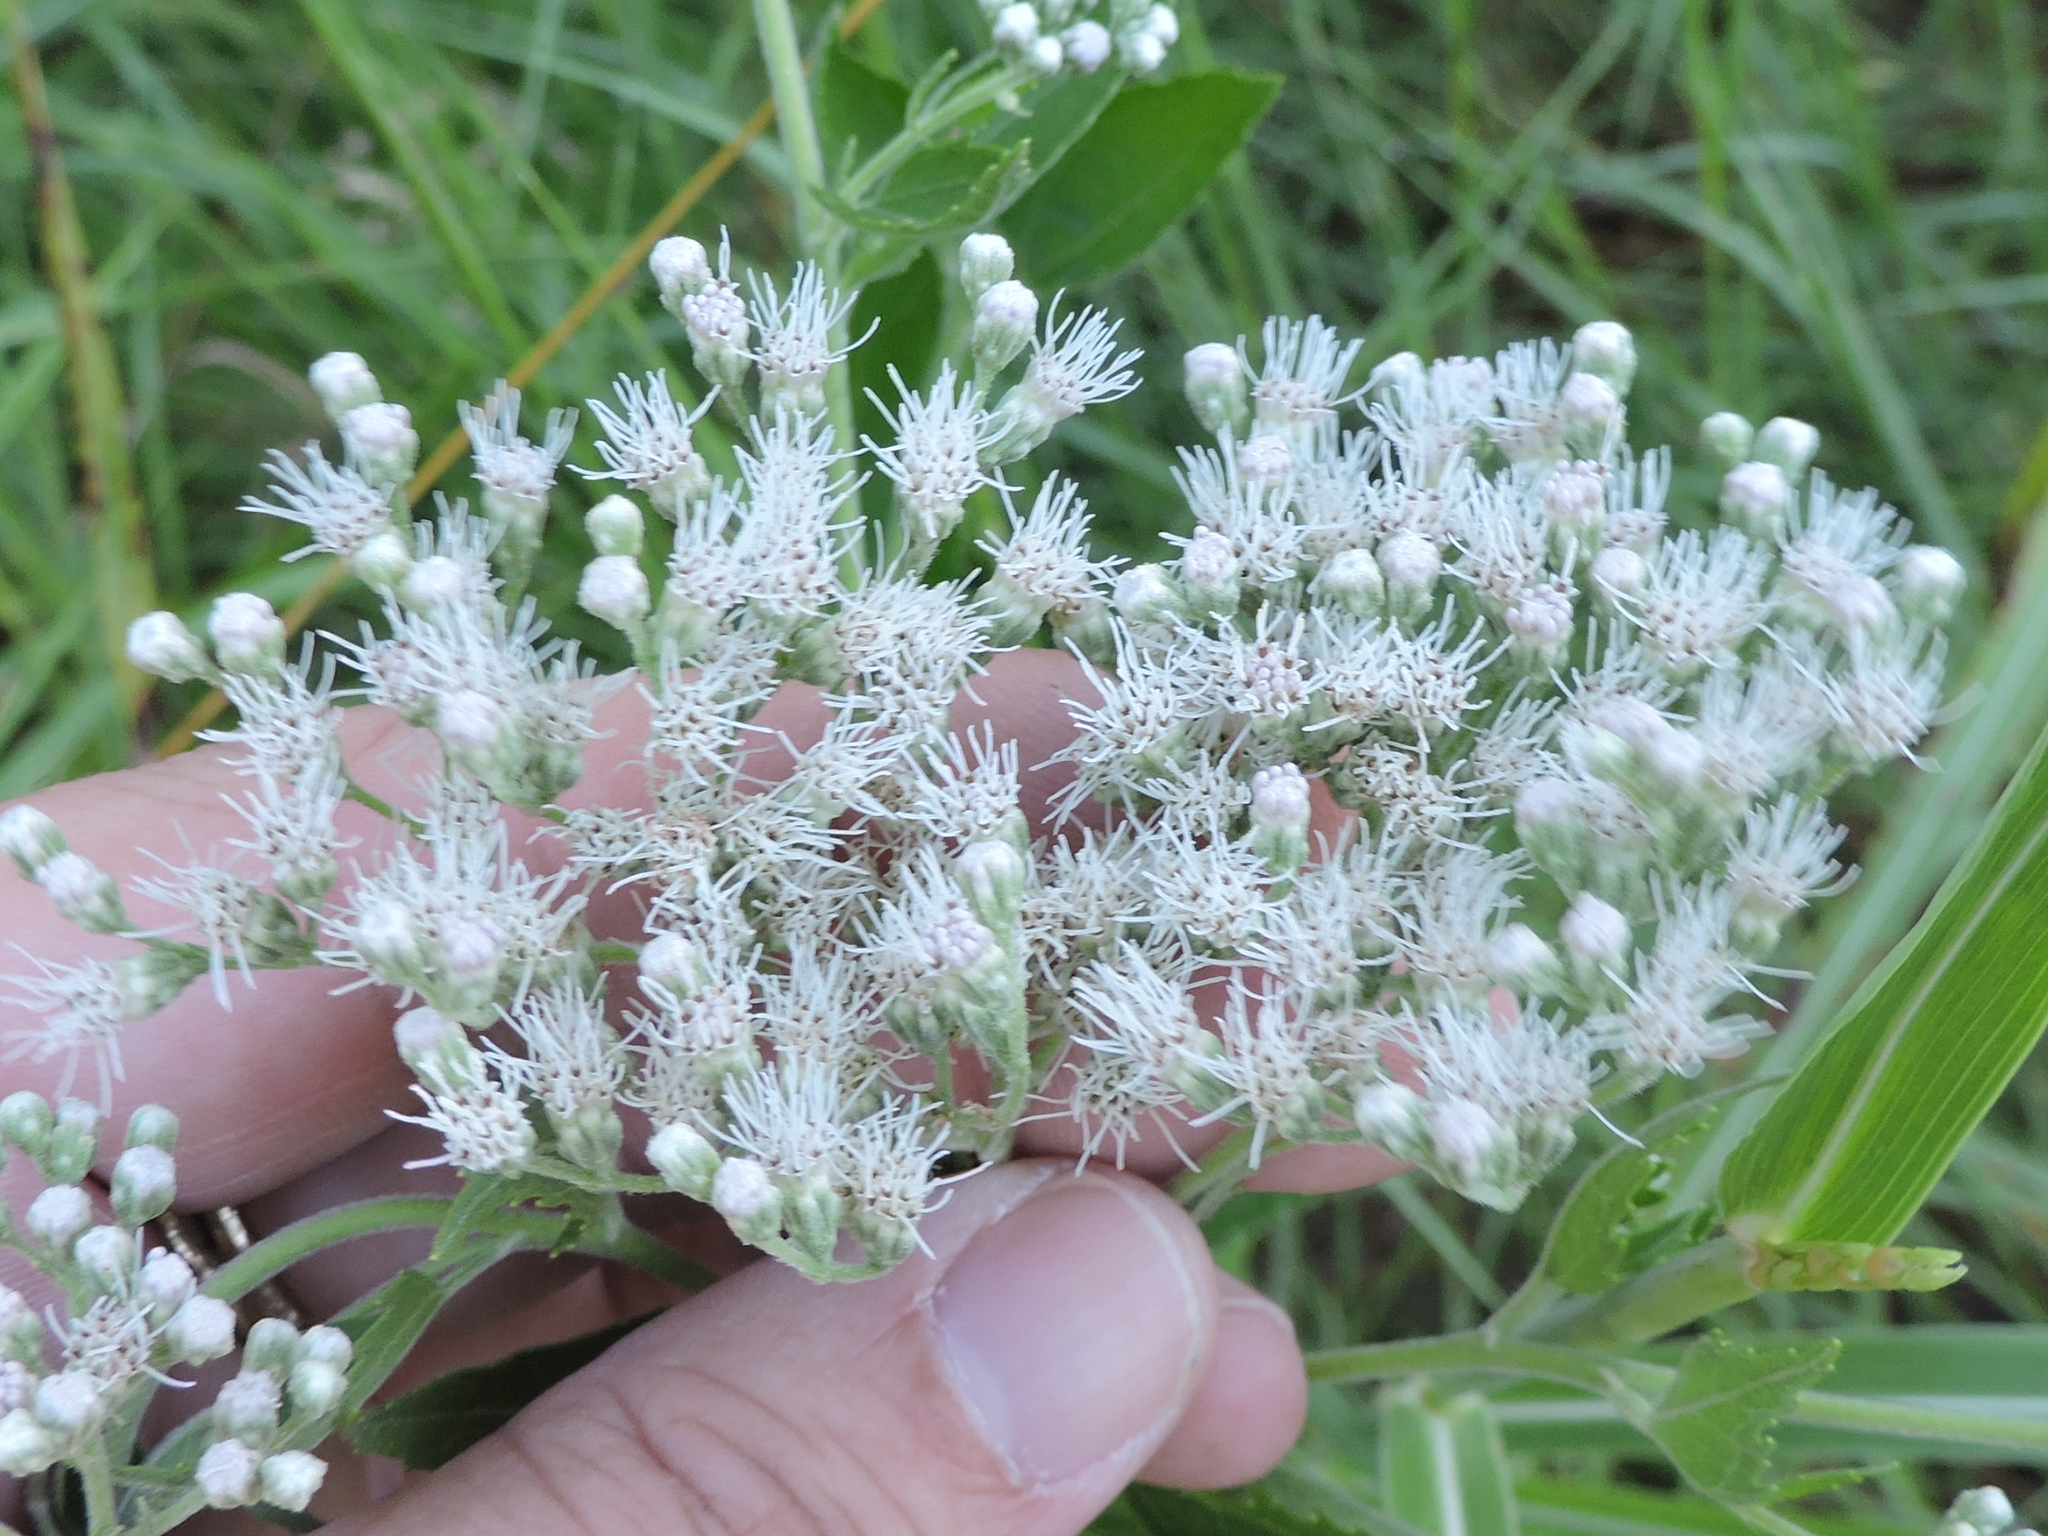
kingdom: Plantae
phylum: Tracheophyta
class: Magnoliopsida
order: Asterales
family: Asteraceae
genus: Eupatorium
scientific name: Eupatorium serotinum
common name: Late boneset
